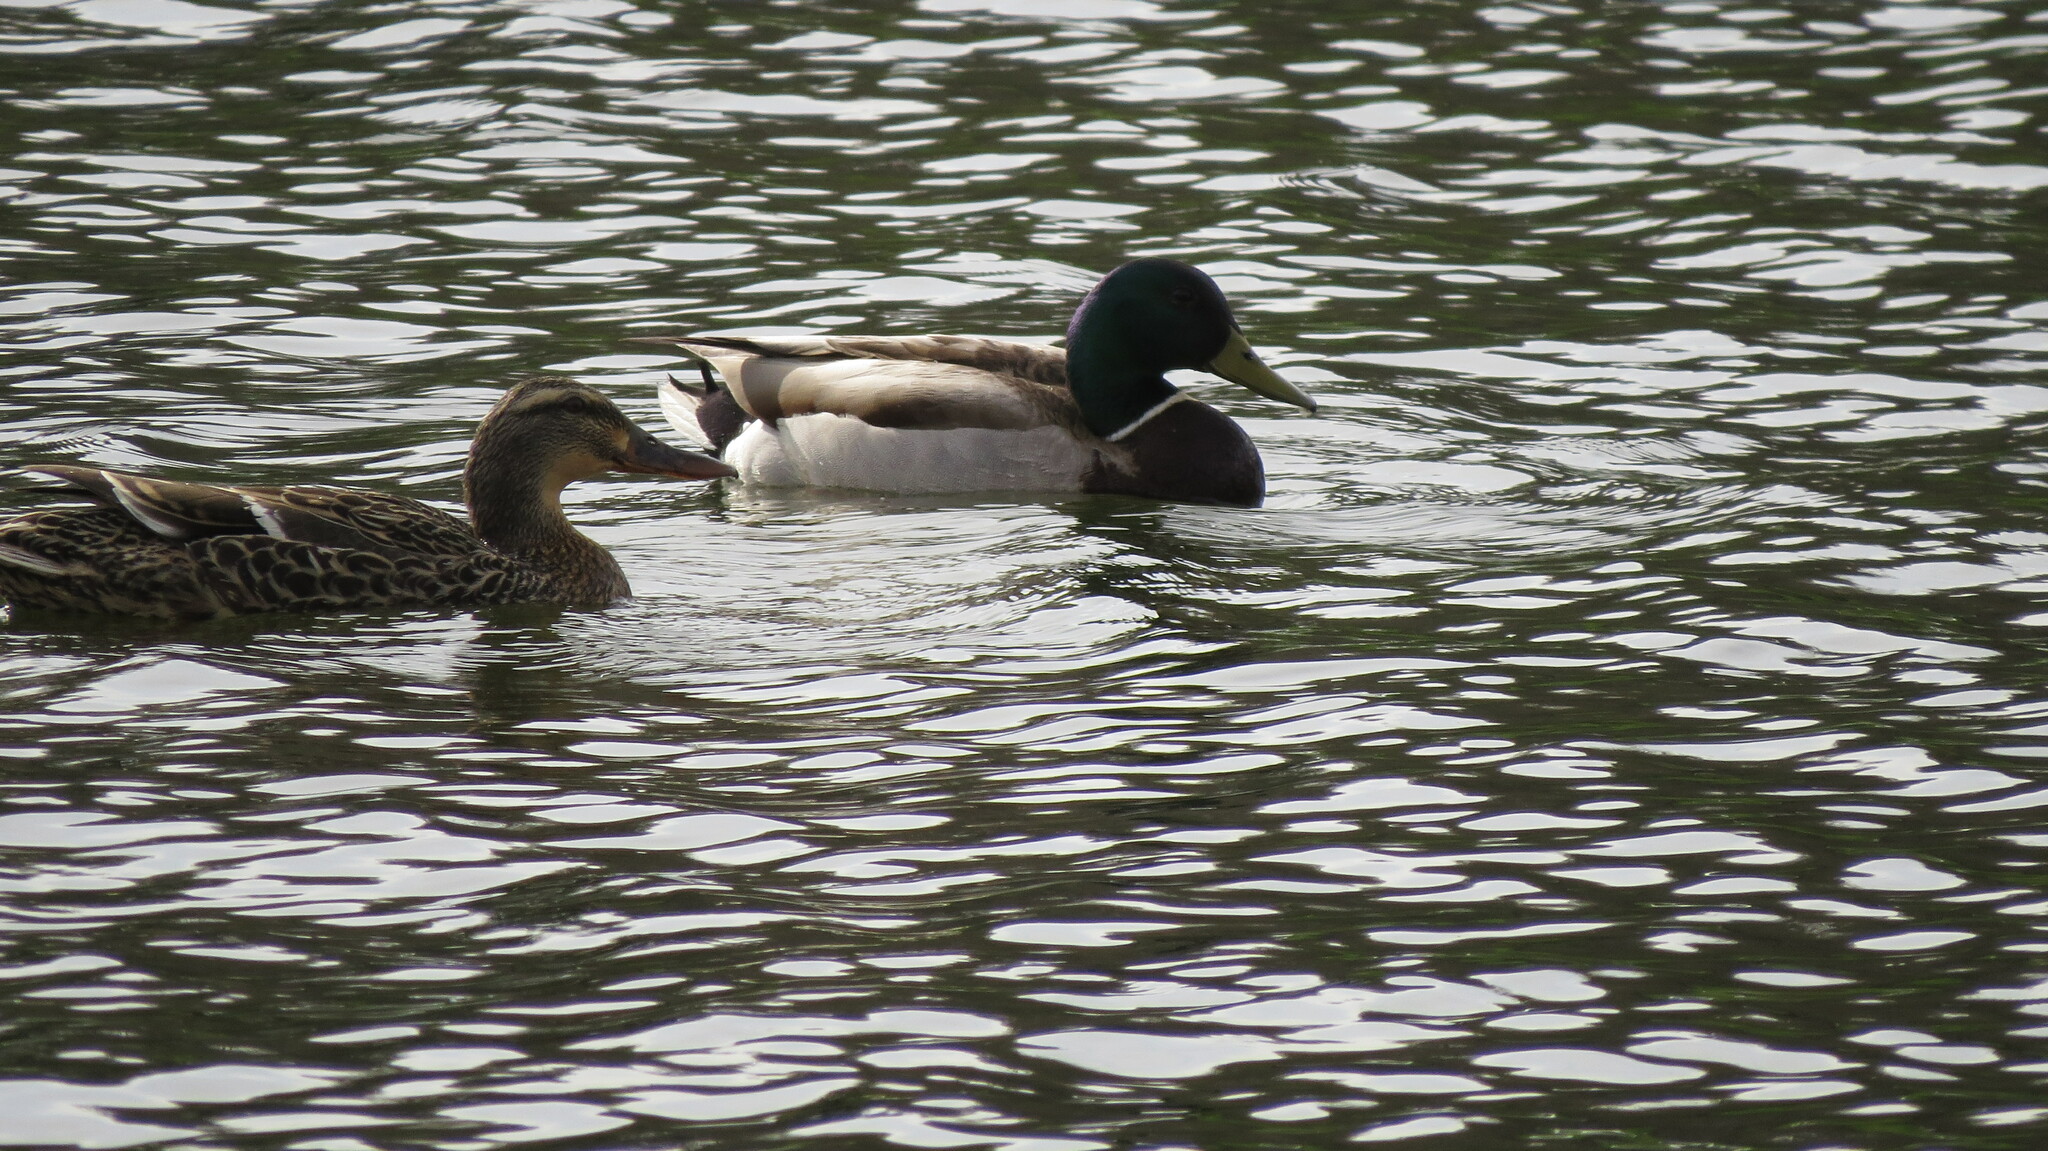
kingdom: Animalia
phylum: Chordata
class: Aves
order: Anseriformes
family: Anatidae
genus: Anas
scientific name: Anas platyrhynchos
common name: Mallard
